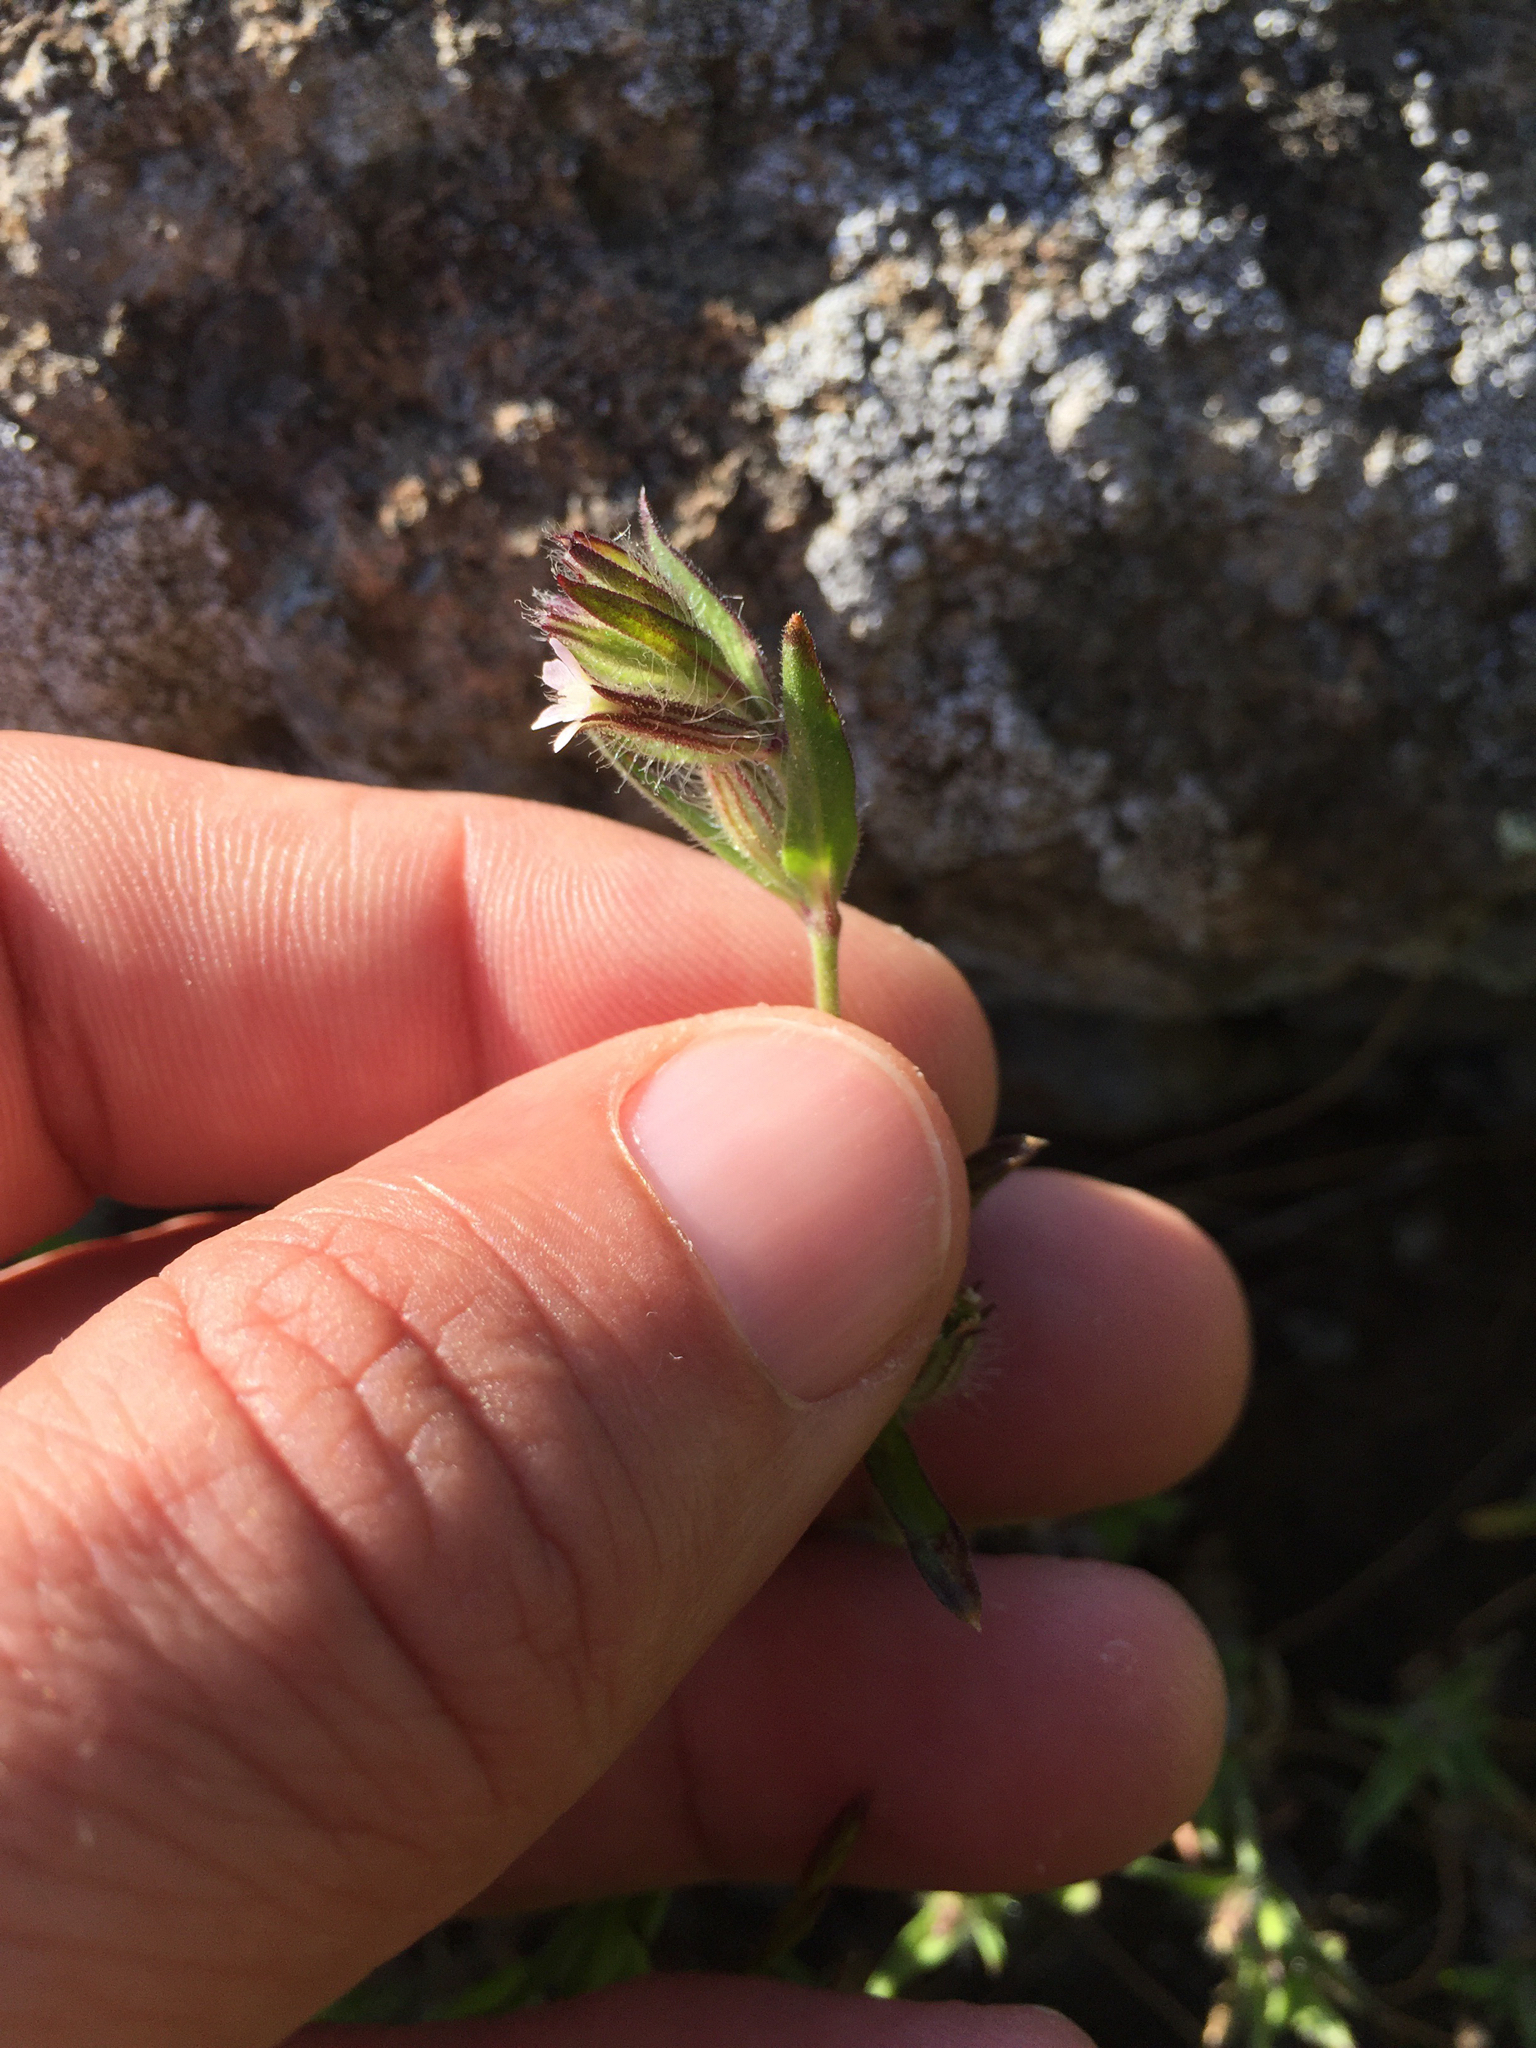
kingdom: Plantae
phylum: Tracheophyta
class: Magnoliopsida
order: Caryophyllales
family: Caryophyllaceae
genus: Silene
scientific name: Silene gallica
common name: Small-flowered catchfly
